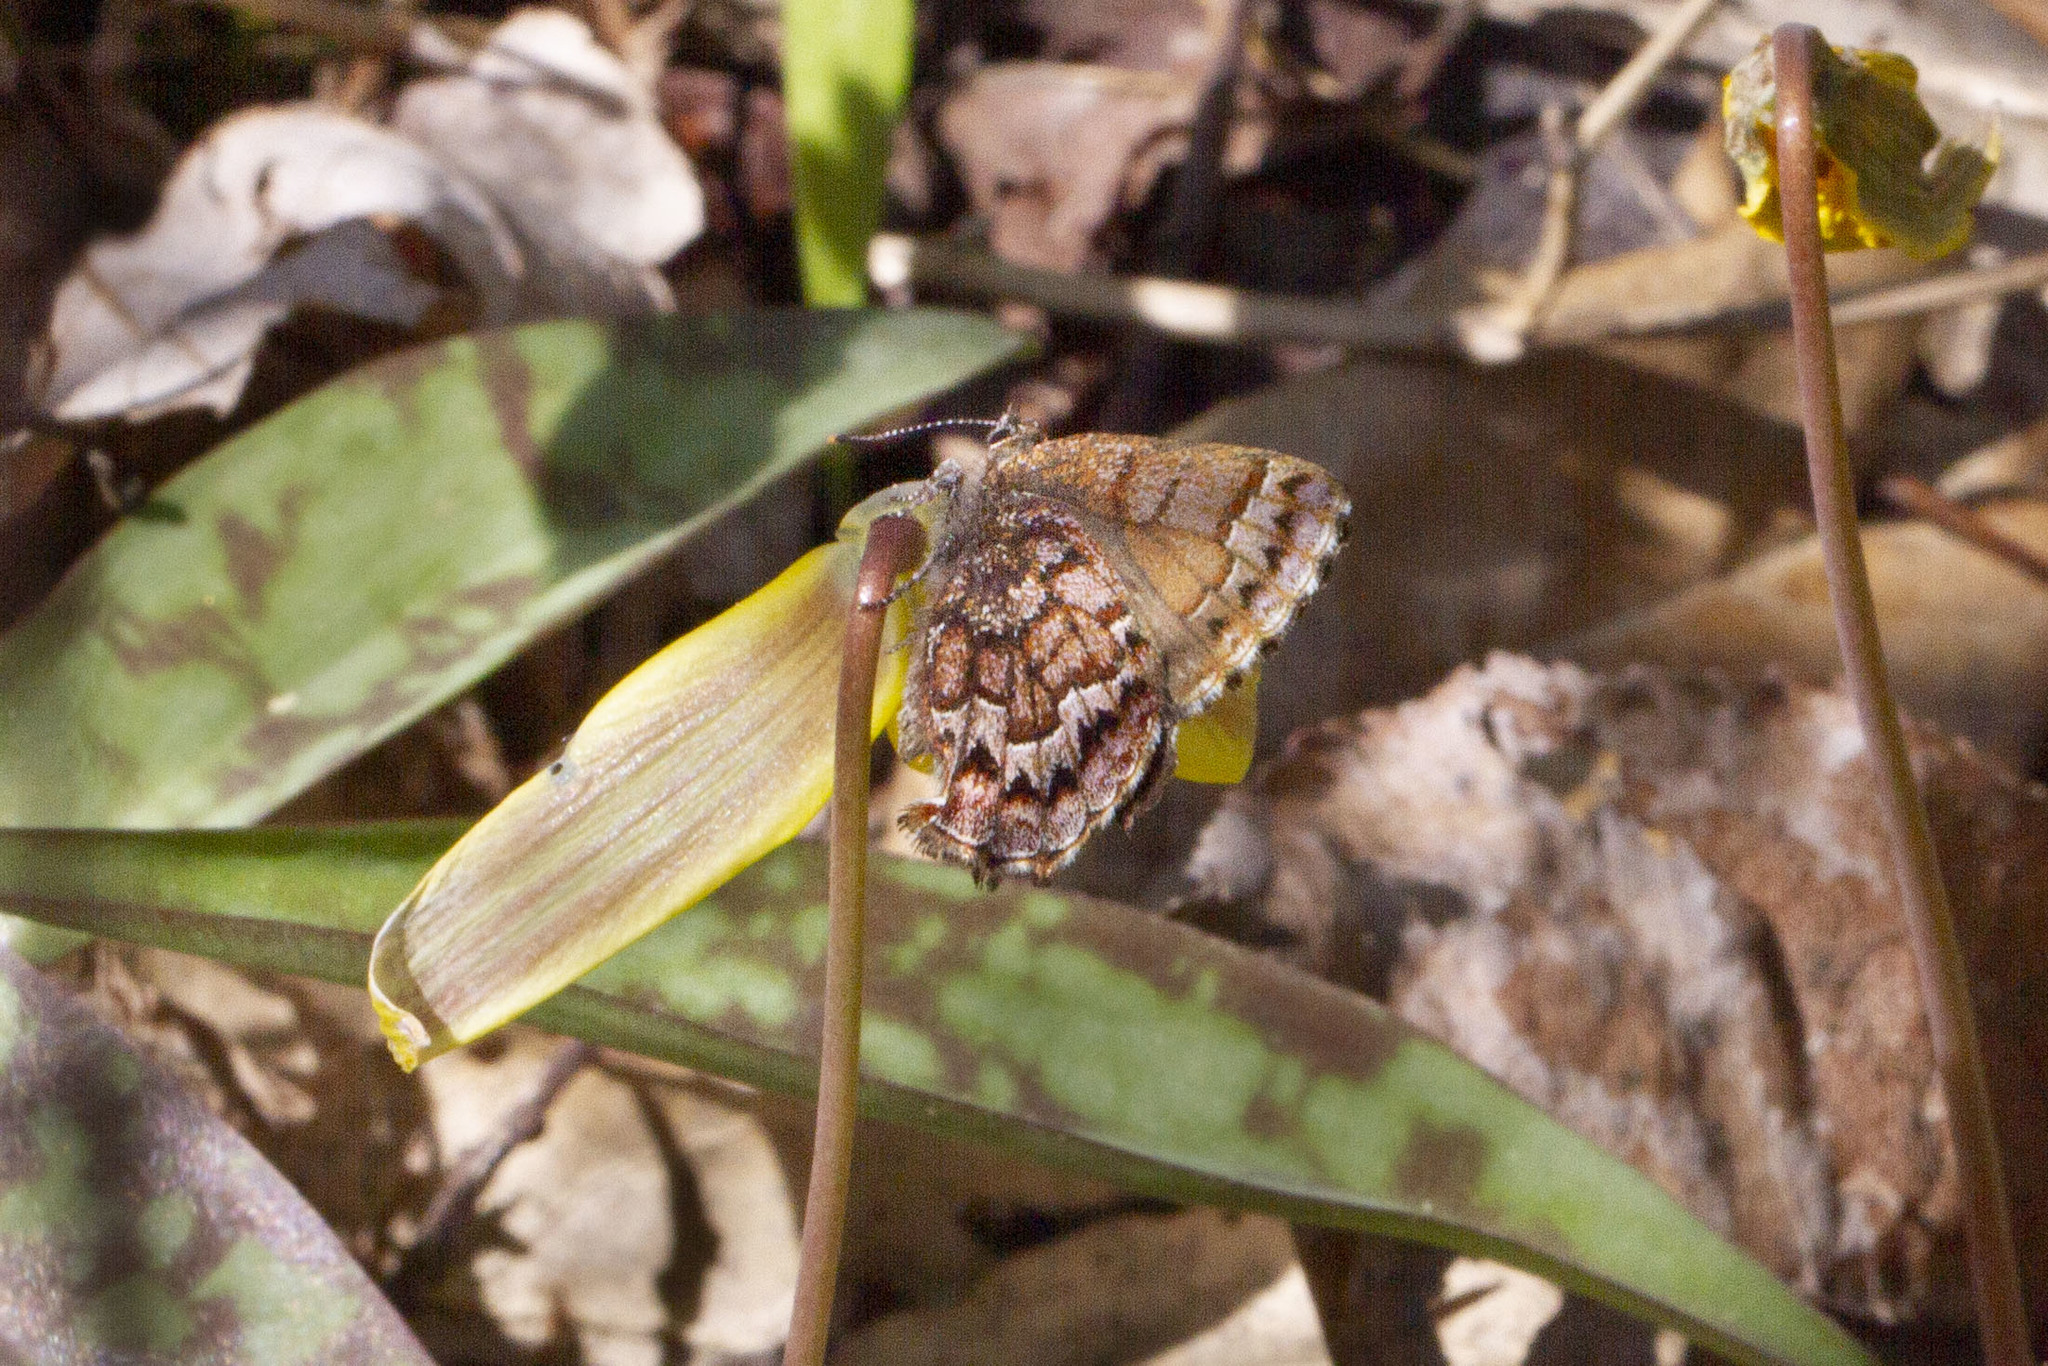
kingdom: Animalia
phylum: Arthropoda
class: Insecta
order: Lepidoptera
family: Lycaenidae
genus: Incisalia
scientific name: Incisalia niphon
